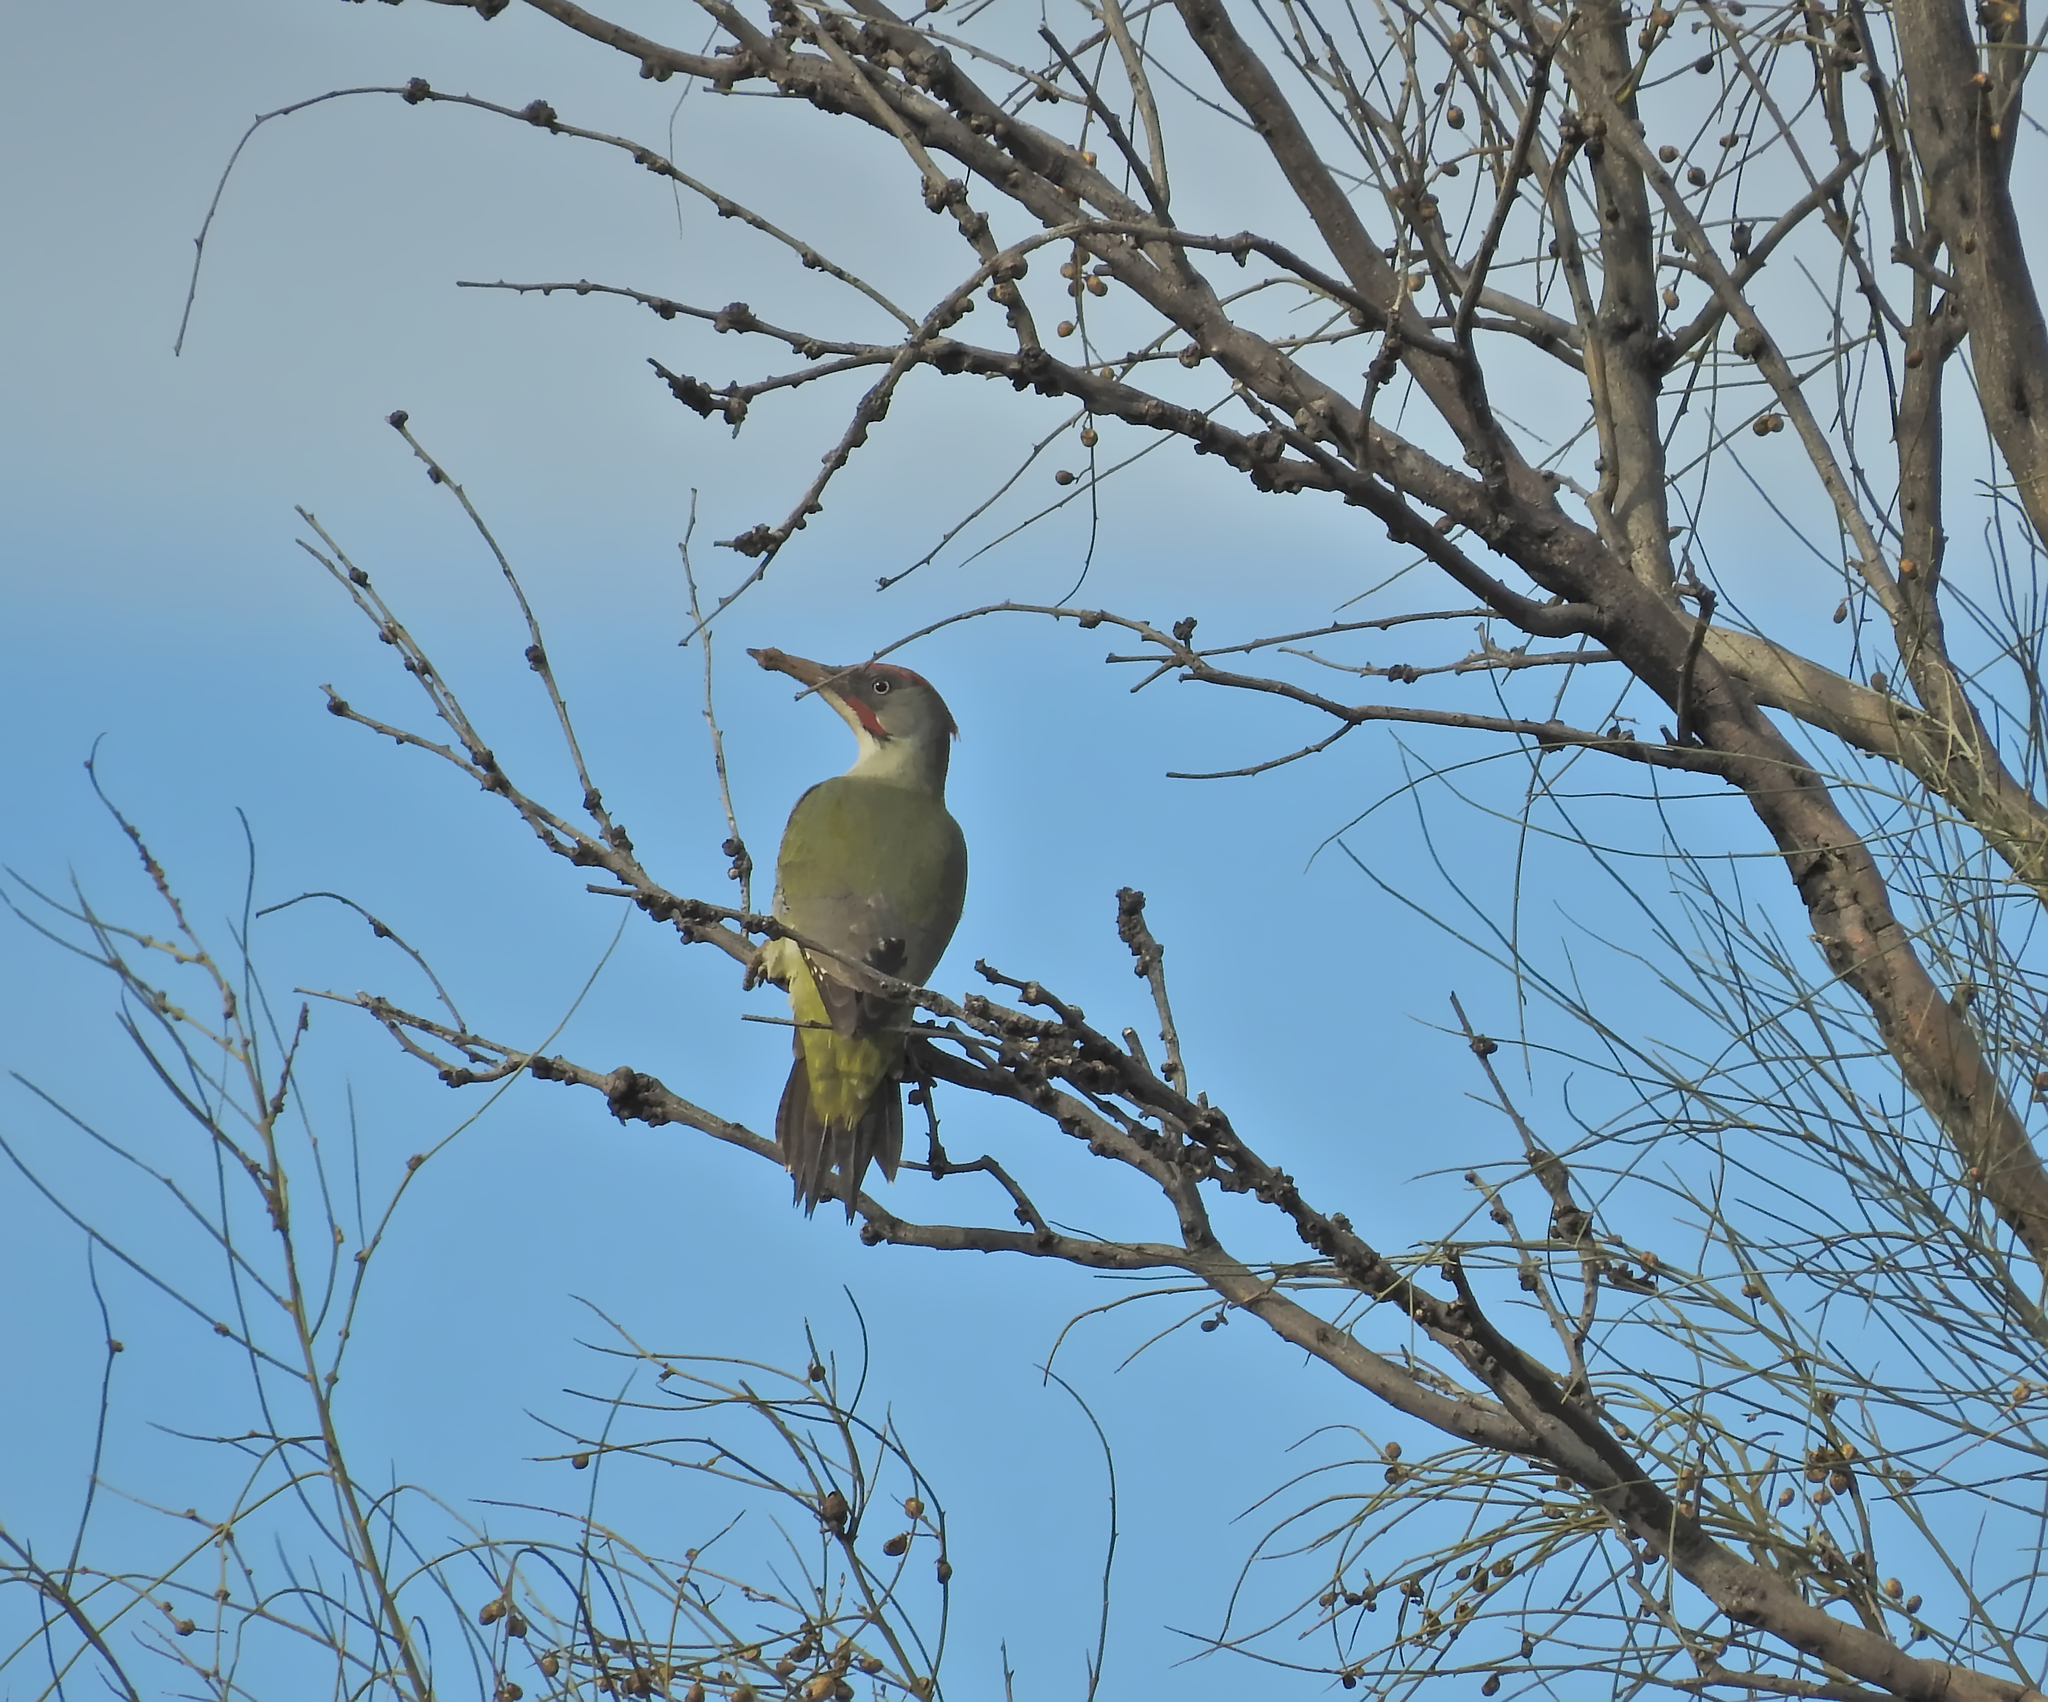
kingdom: Animalia
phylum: Chordata
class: Aves
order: Piciformes
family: Picidae
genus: Picus
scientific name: Picus sharpei
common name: Iberian green woodpecker
